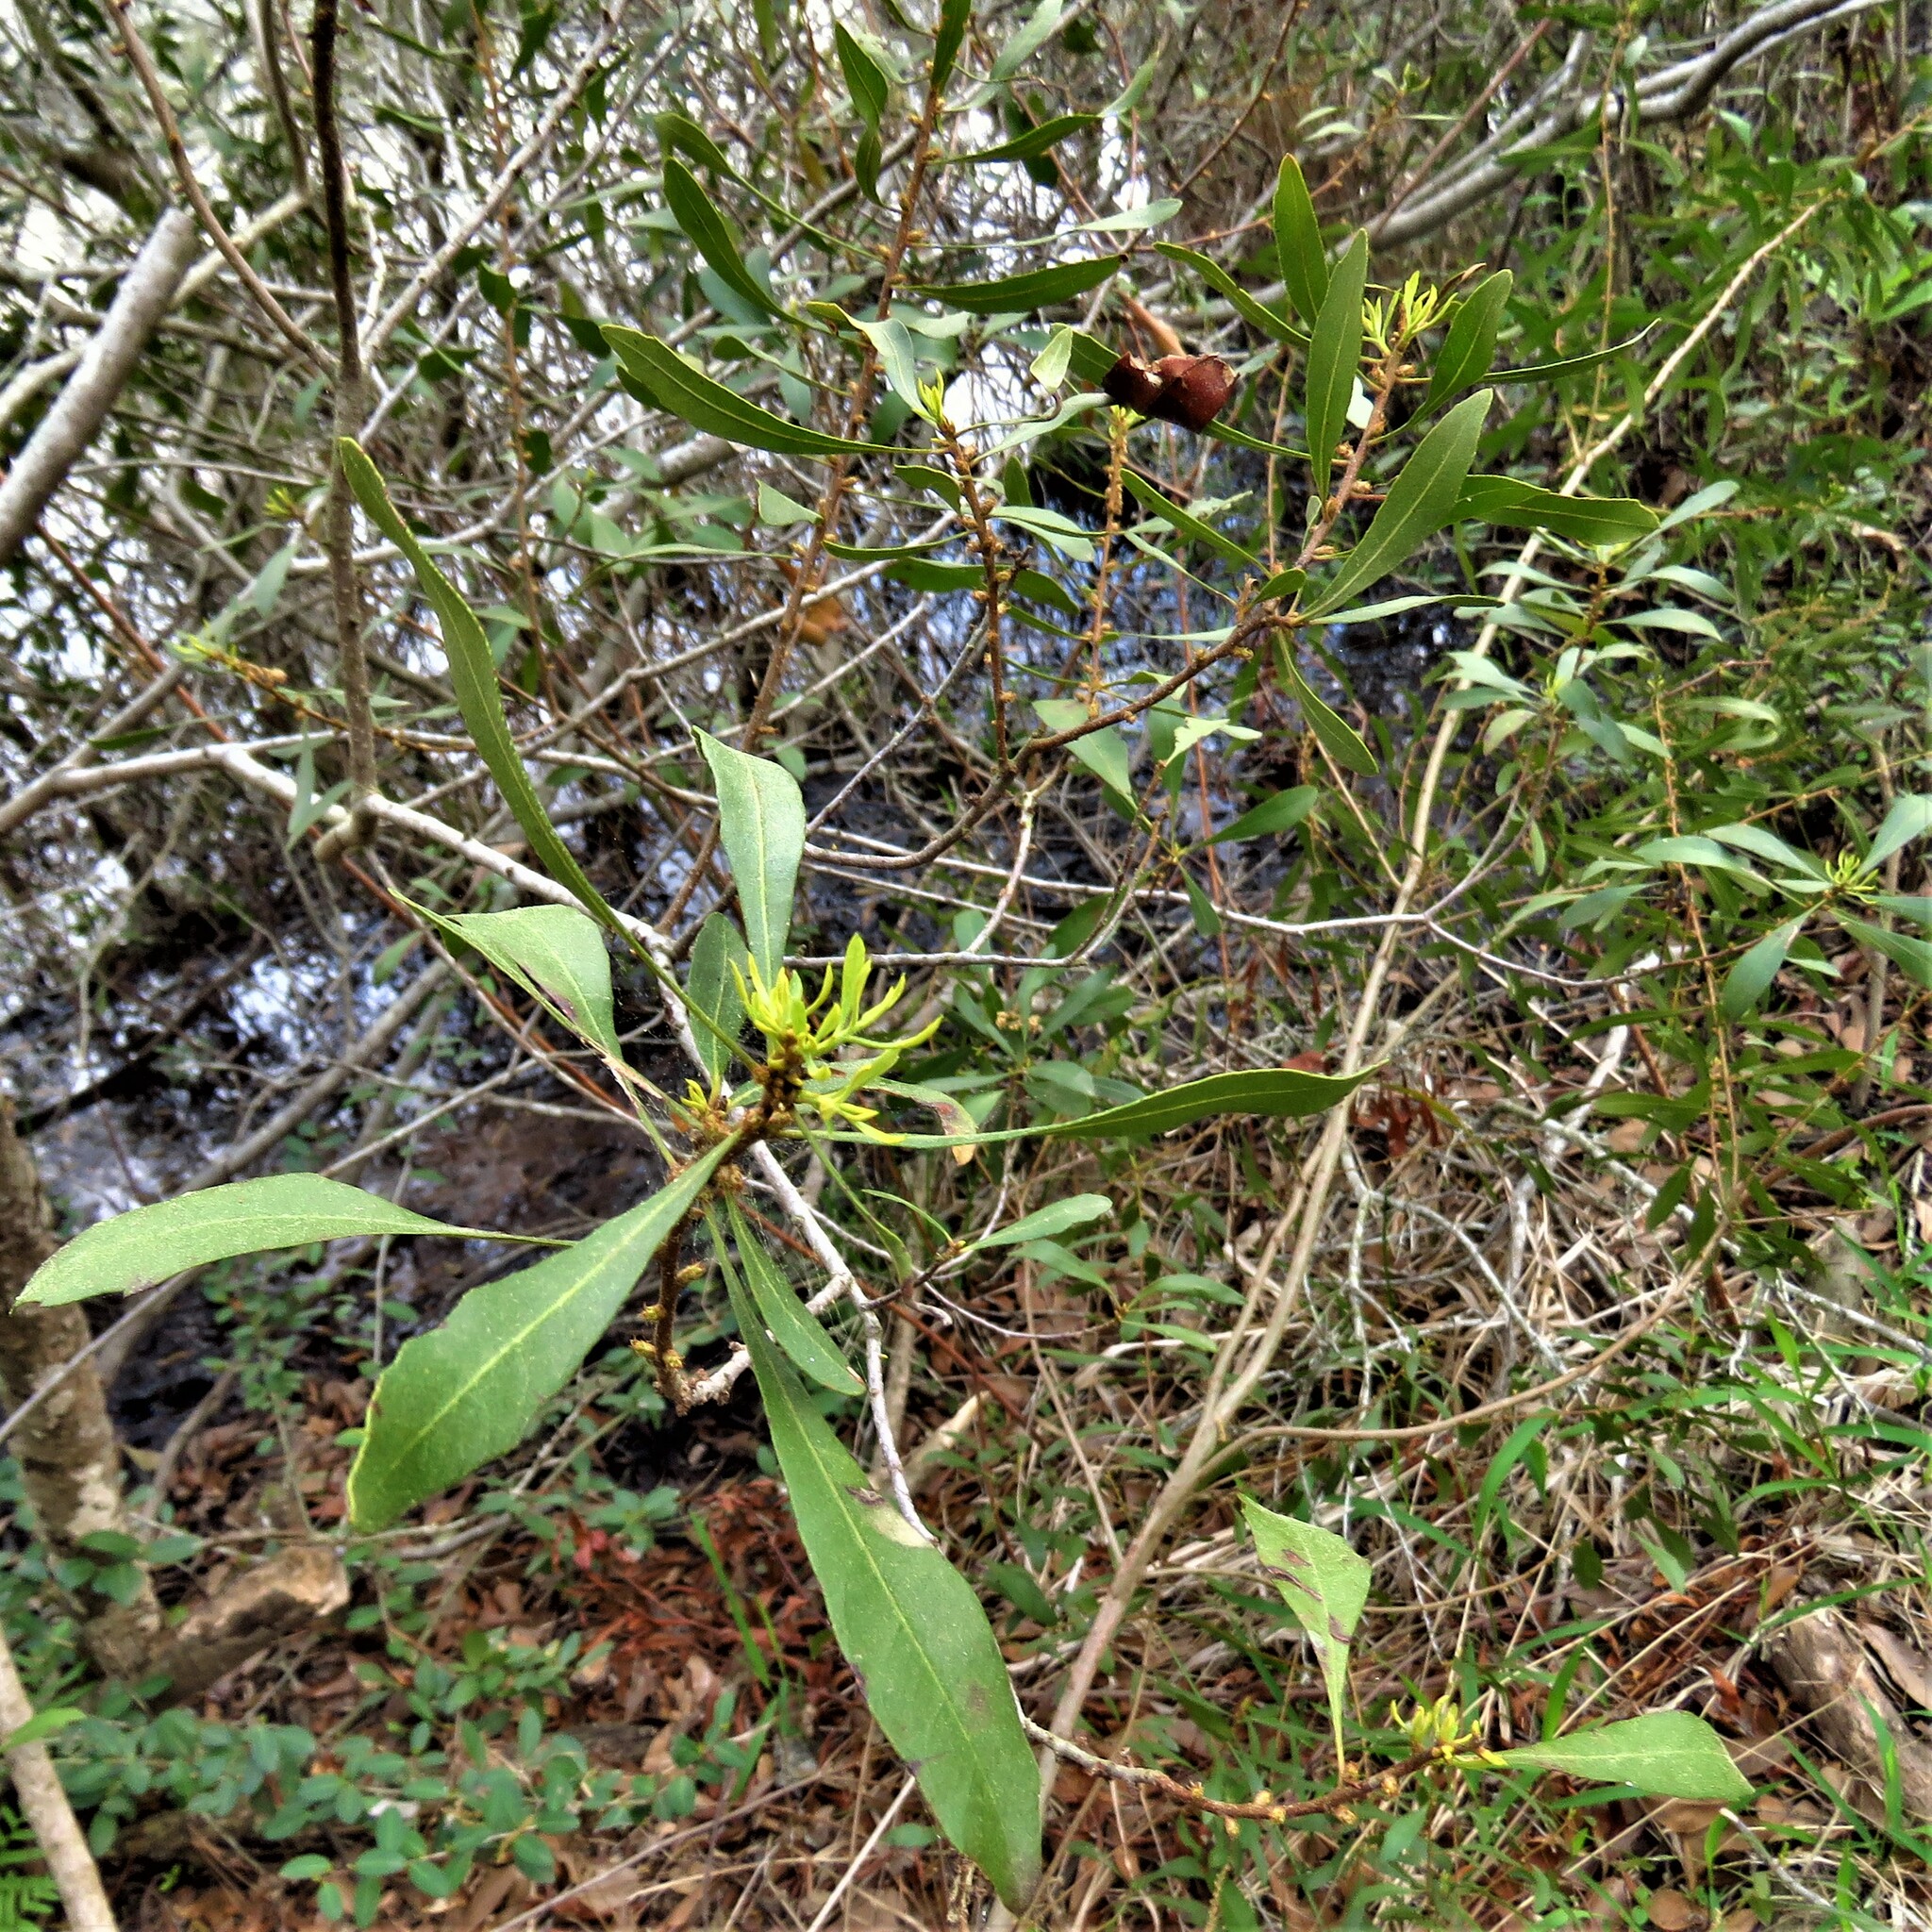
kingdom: Plantae
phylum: Tracheophyta
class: Magnoliopsida
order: Fagales
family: Myricaceae
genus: Morella
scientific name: Morella cerifera
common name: Wax myrtle
